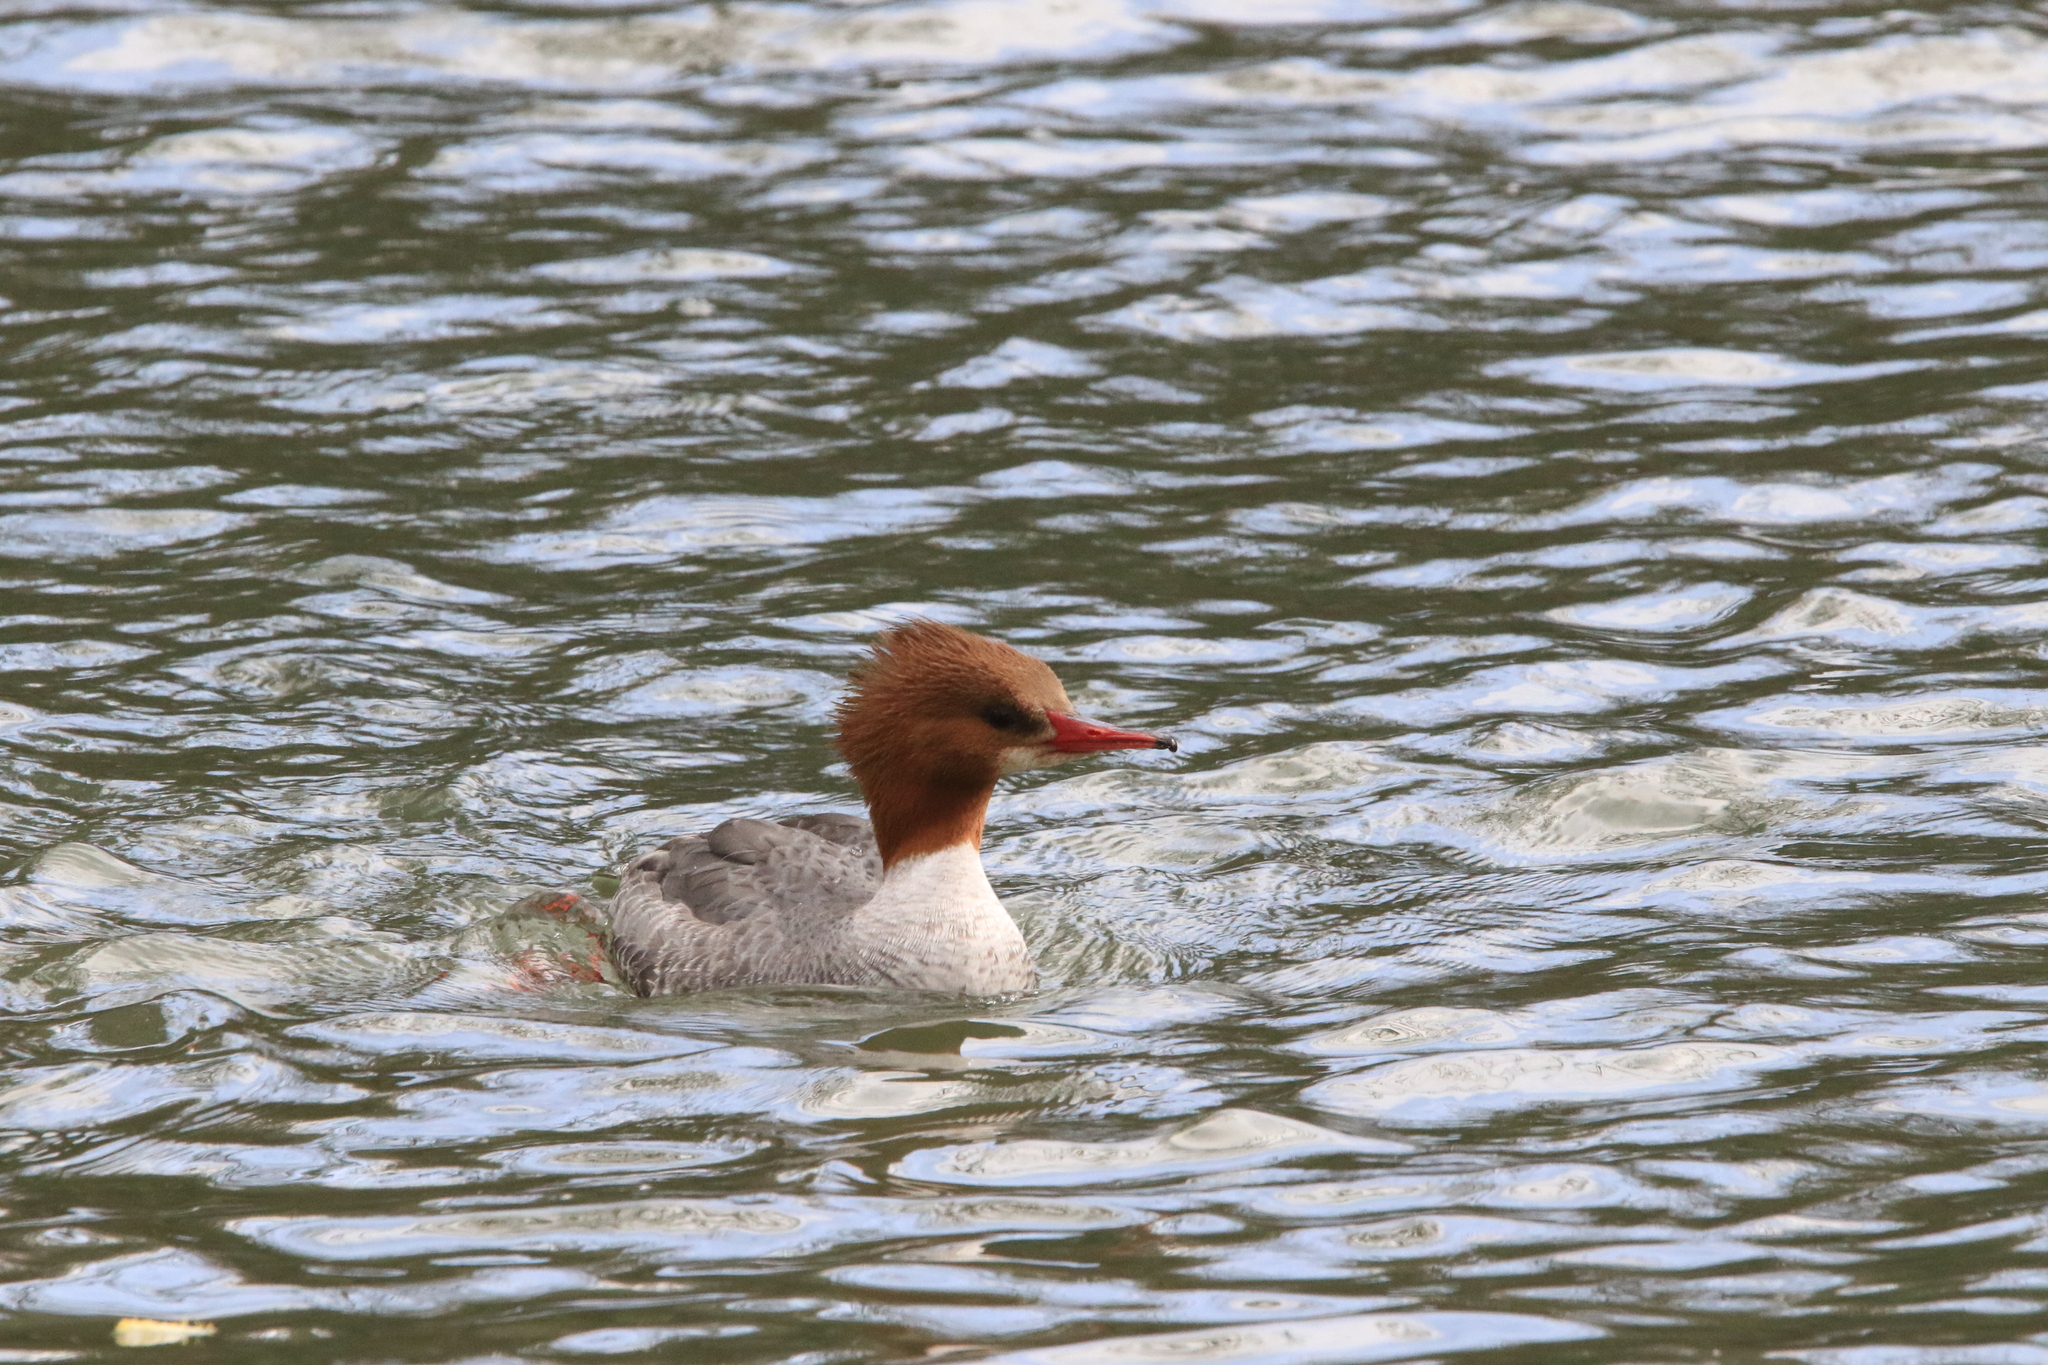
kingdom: Animalia
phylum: Chordata
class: Aves
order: Anseriformes
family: Anatidae
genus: Mergus
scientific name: Mergus merganser
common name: Common merganser
